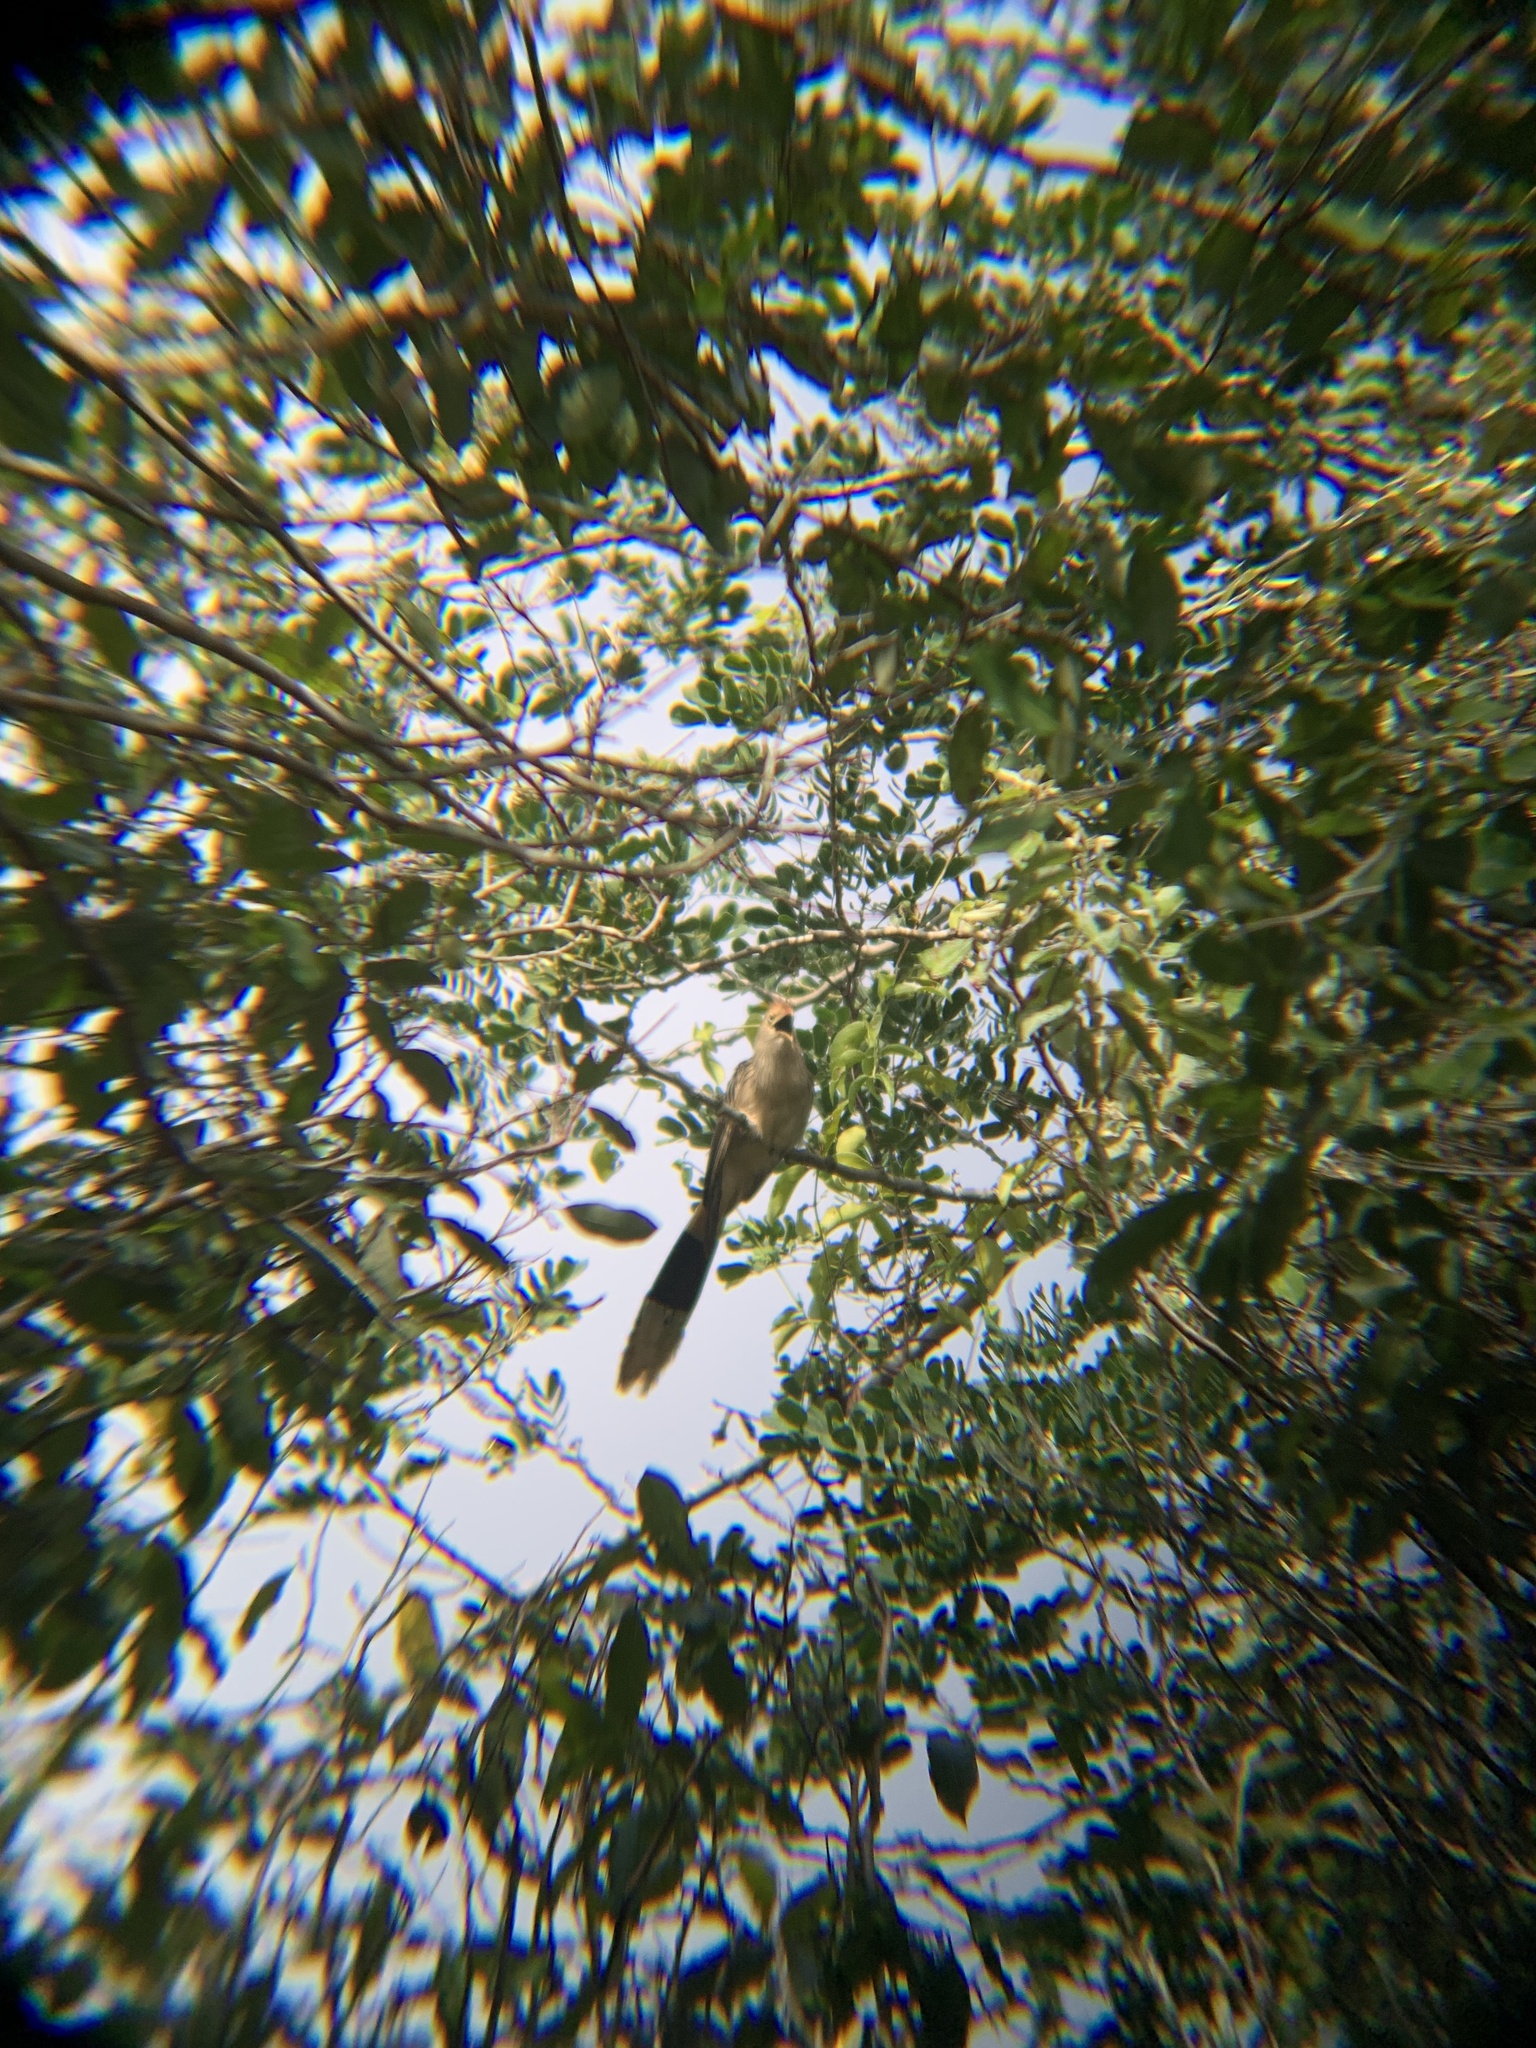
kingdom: Animalia
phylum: Chordata
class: Aves
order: Cuculiformes
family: Cuculidae
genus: Guira
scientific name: Guira guira
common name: Guira cuckoo
